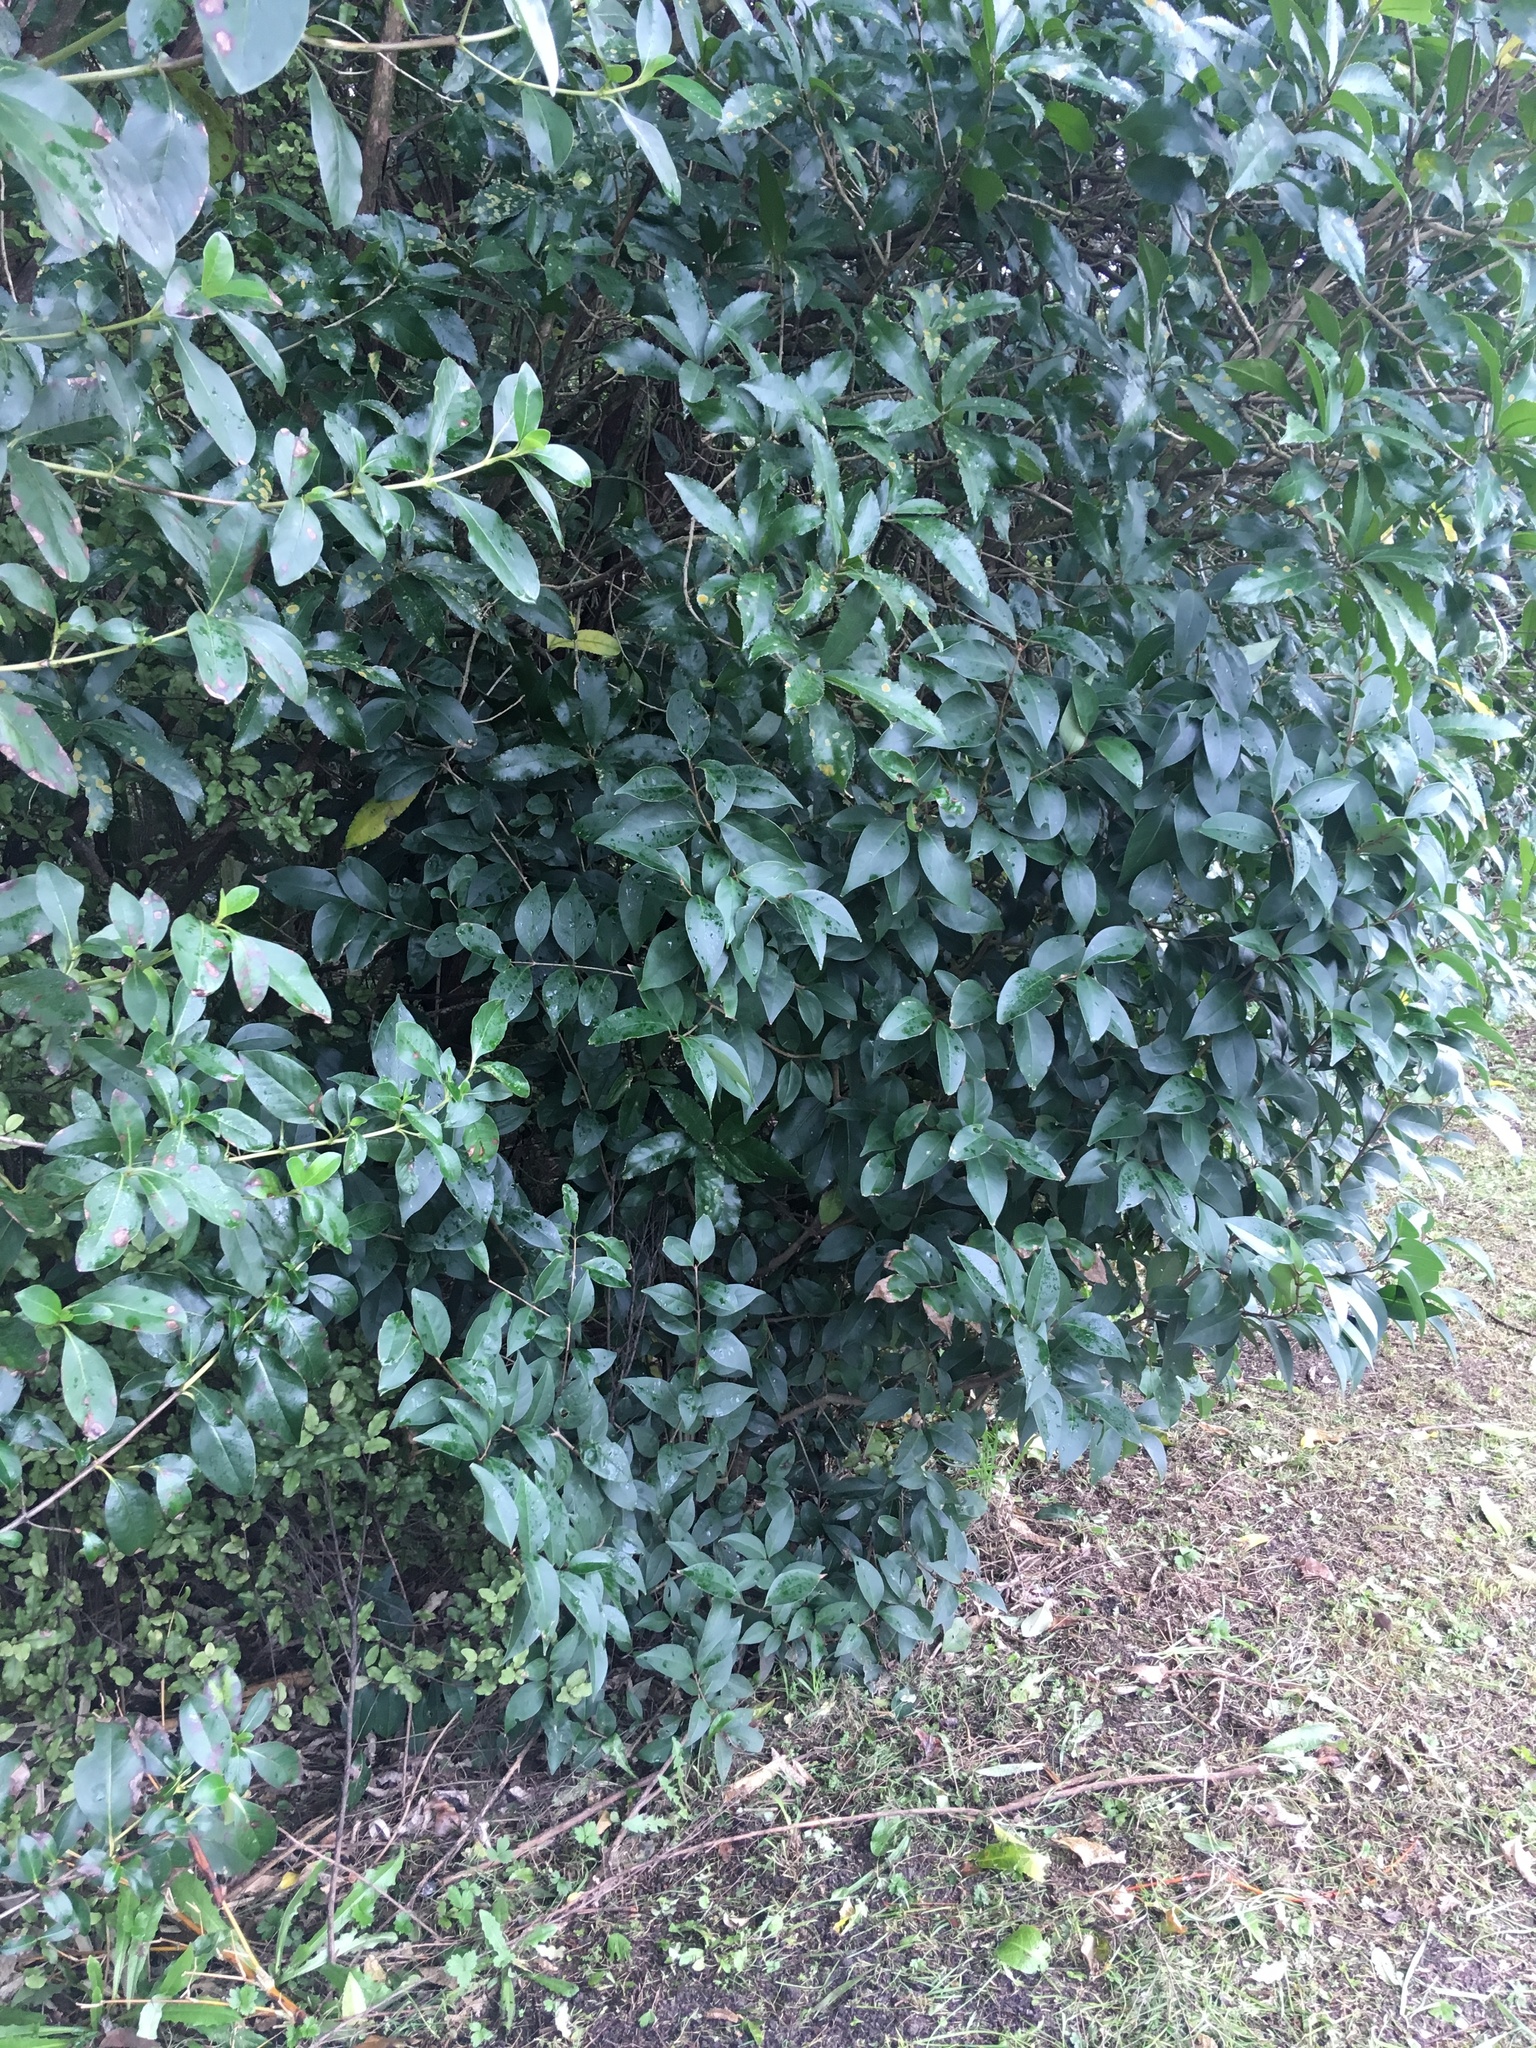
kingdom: Plantae
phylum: Tracheophyta
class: Magnoliopsida
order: Lamiales
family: Oleaceae
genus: Ligustrum
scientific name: Ligustrum lucidum
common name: Glossy privet
